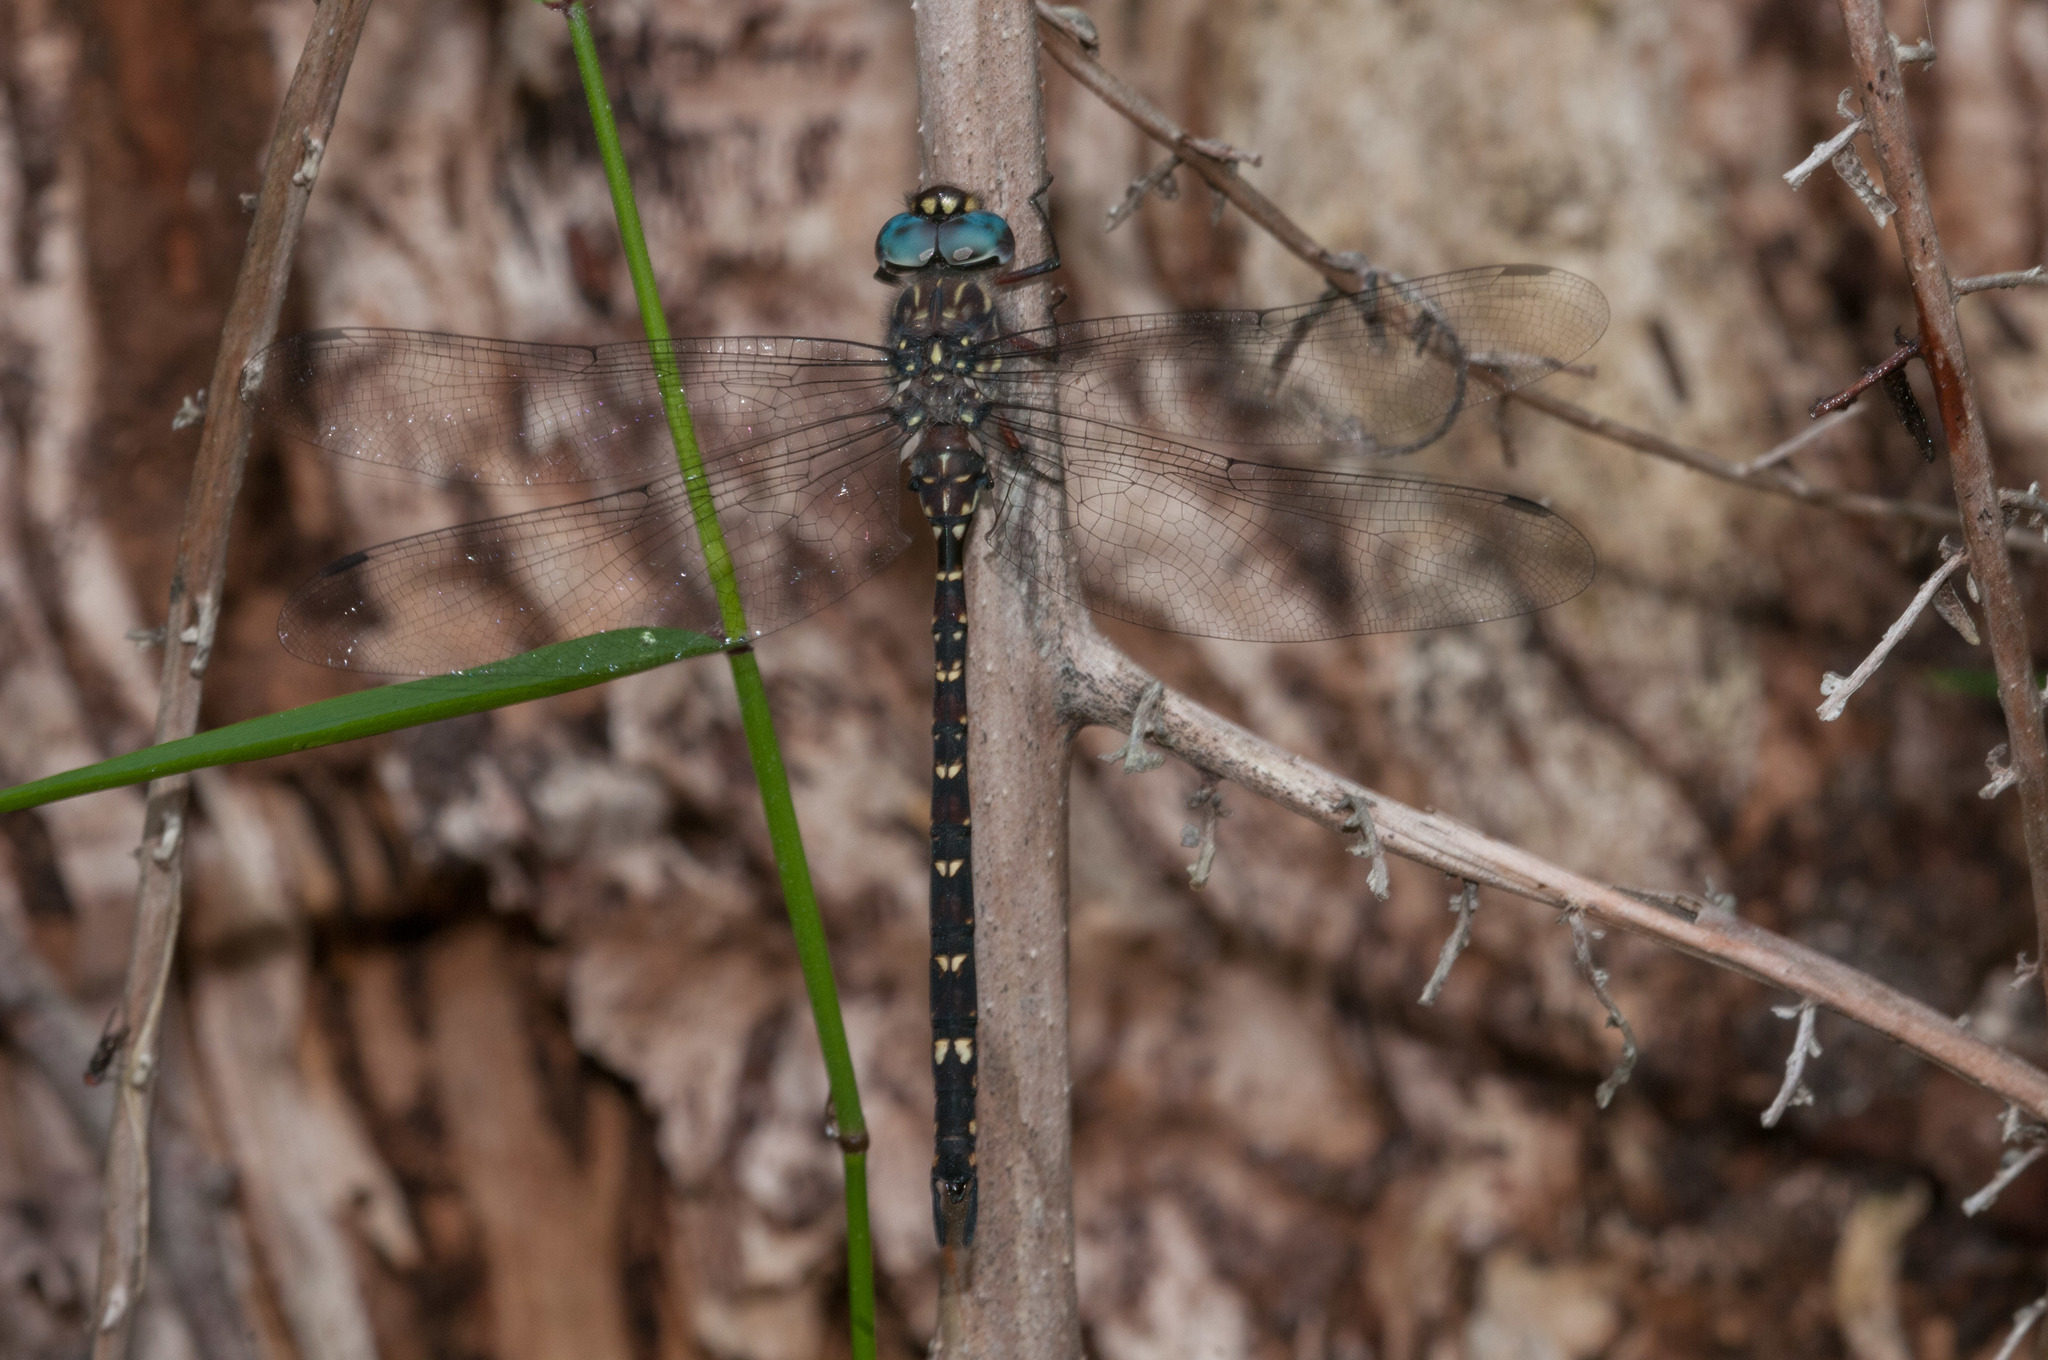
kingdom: Animalia
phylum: Arthropoda
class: Insecta
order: Odonata
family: Aeshnidae
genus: Austroaeschna
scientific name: Austroaeschna multipunctata
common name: Multi-spotted darner
